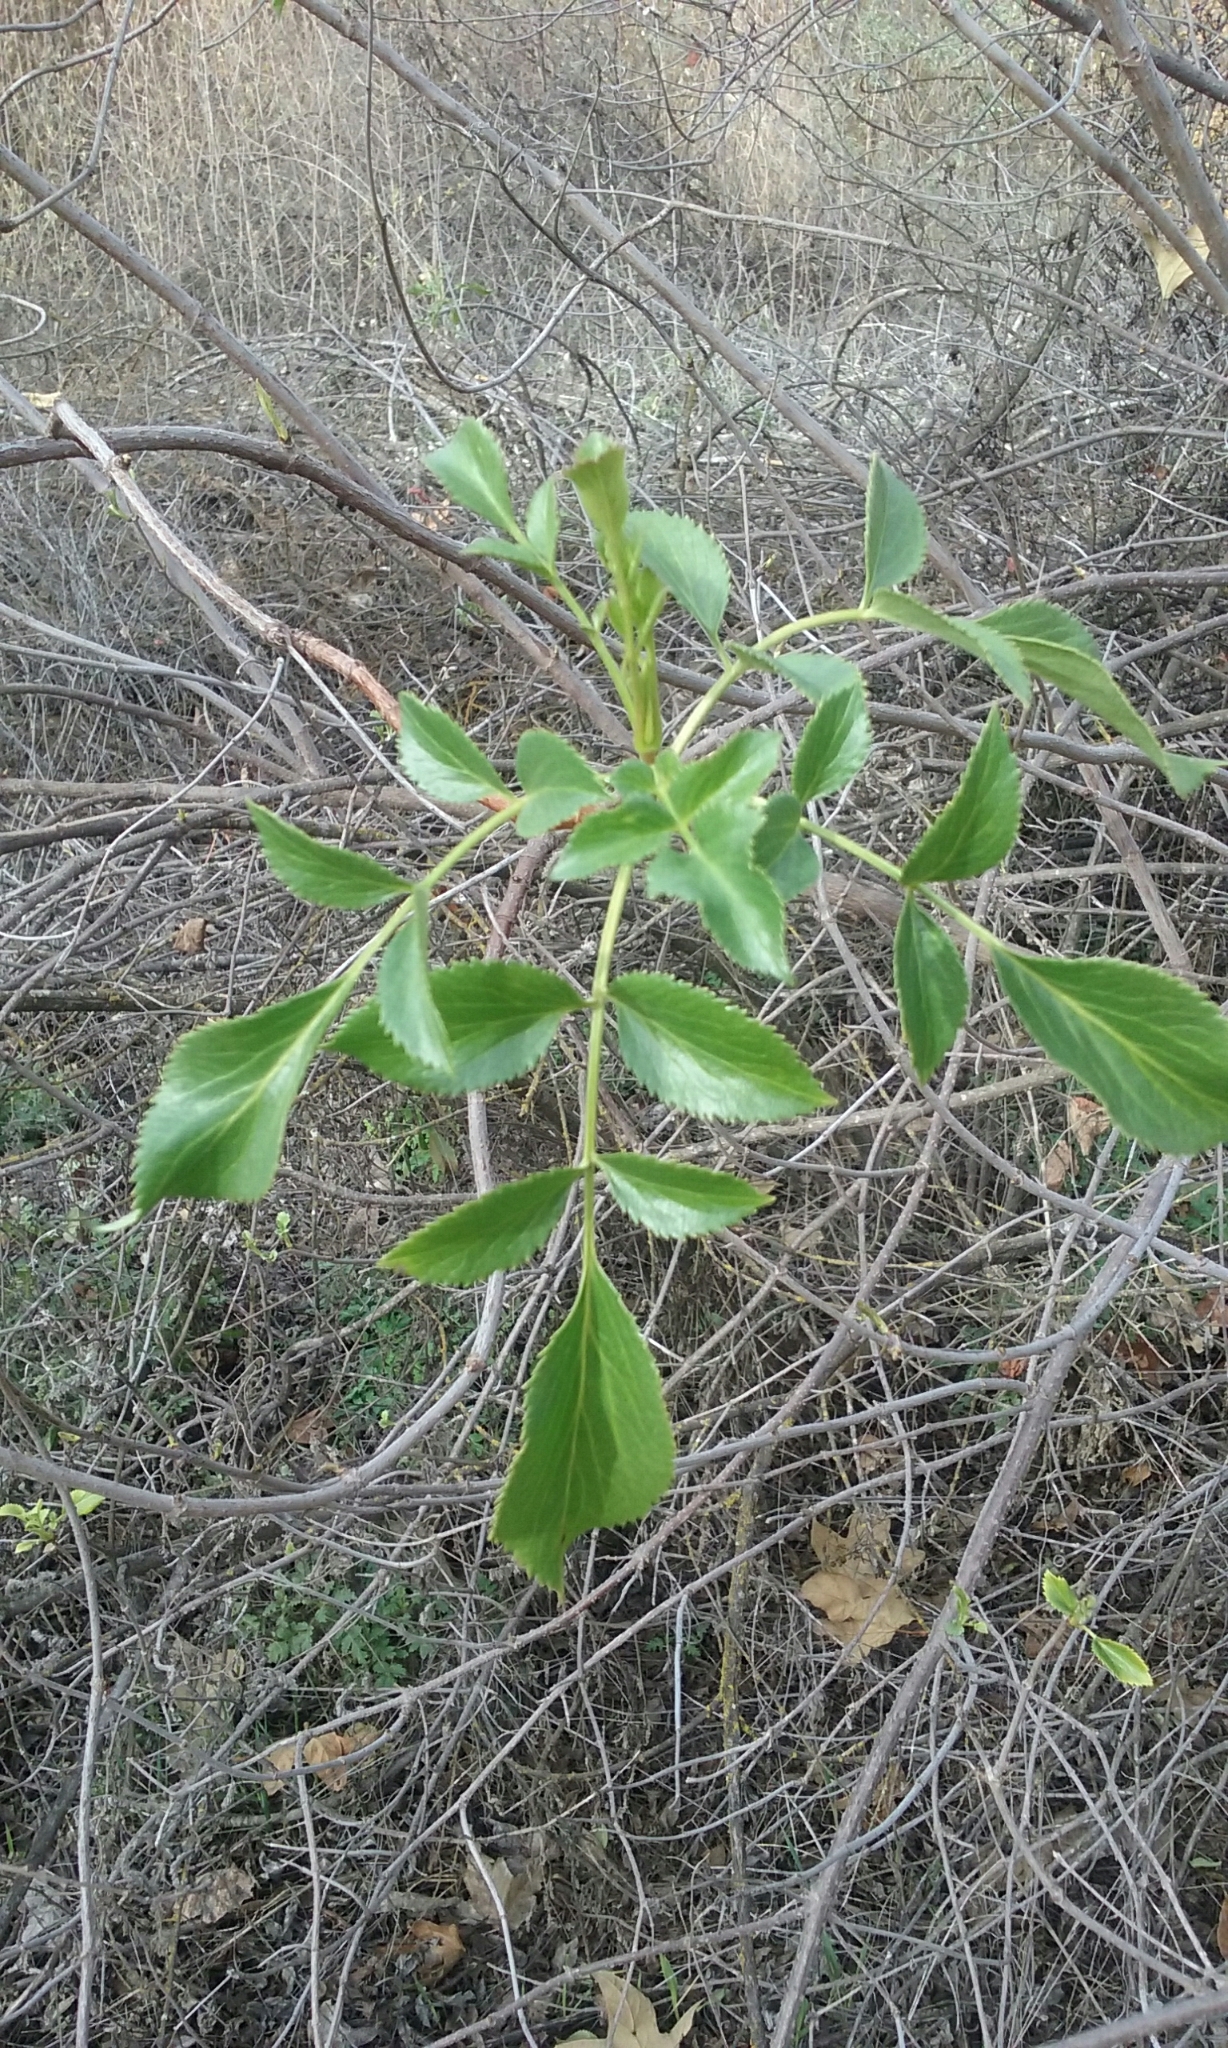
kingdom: Plantae
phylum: Tracheophyta
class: Magnoliopsida
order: Dipsacales
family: Viburnaceae
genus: Sambucus
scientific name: Sambucus cerulea
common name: Blue elder
